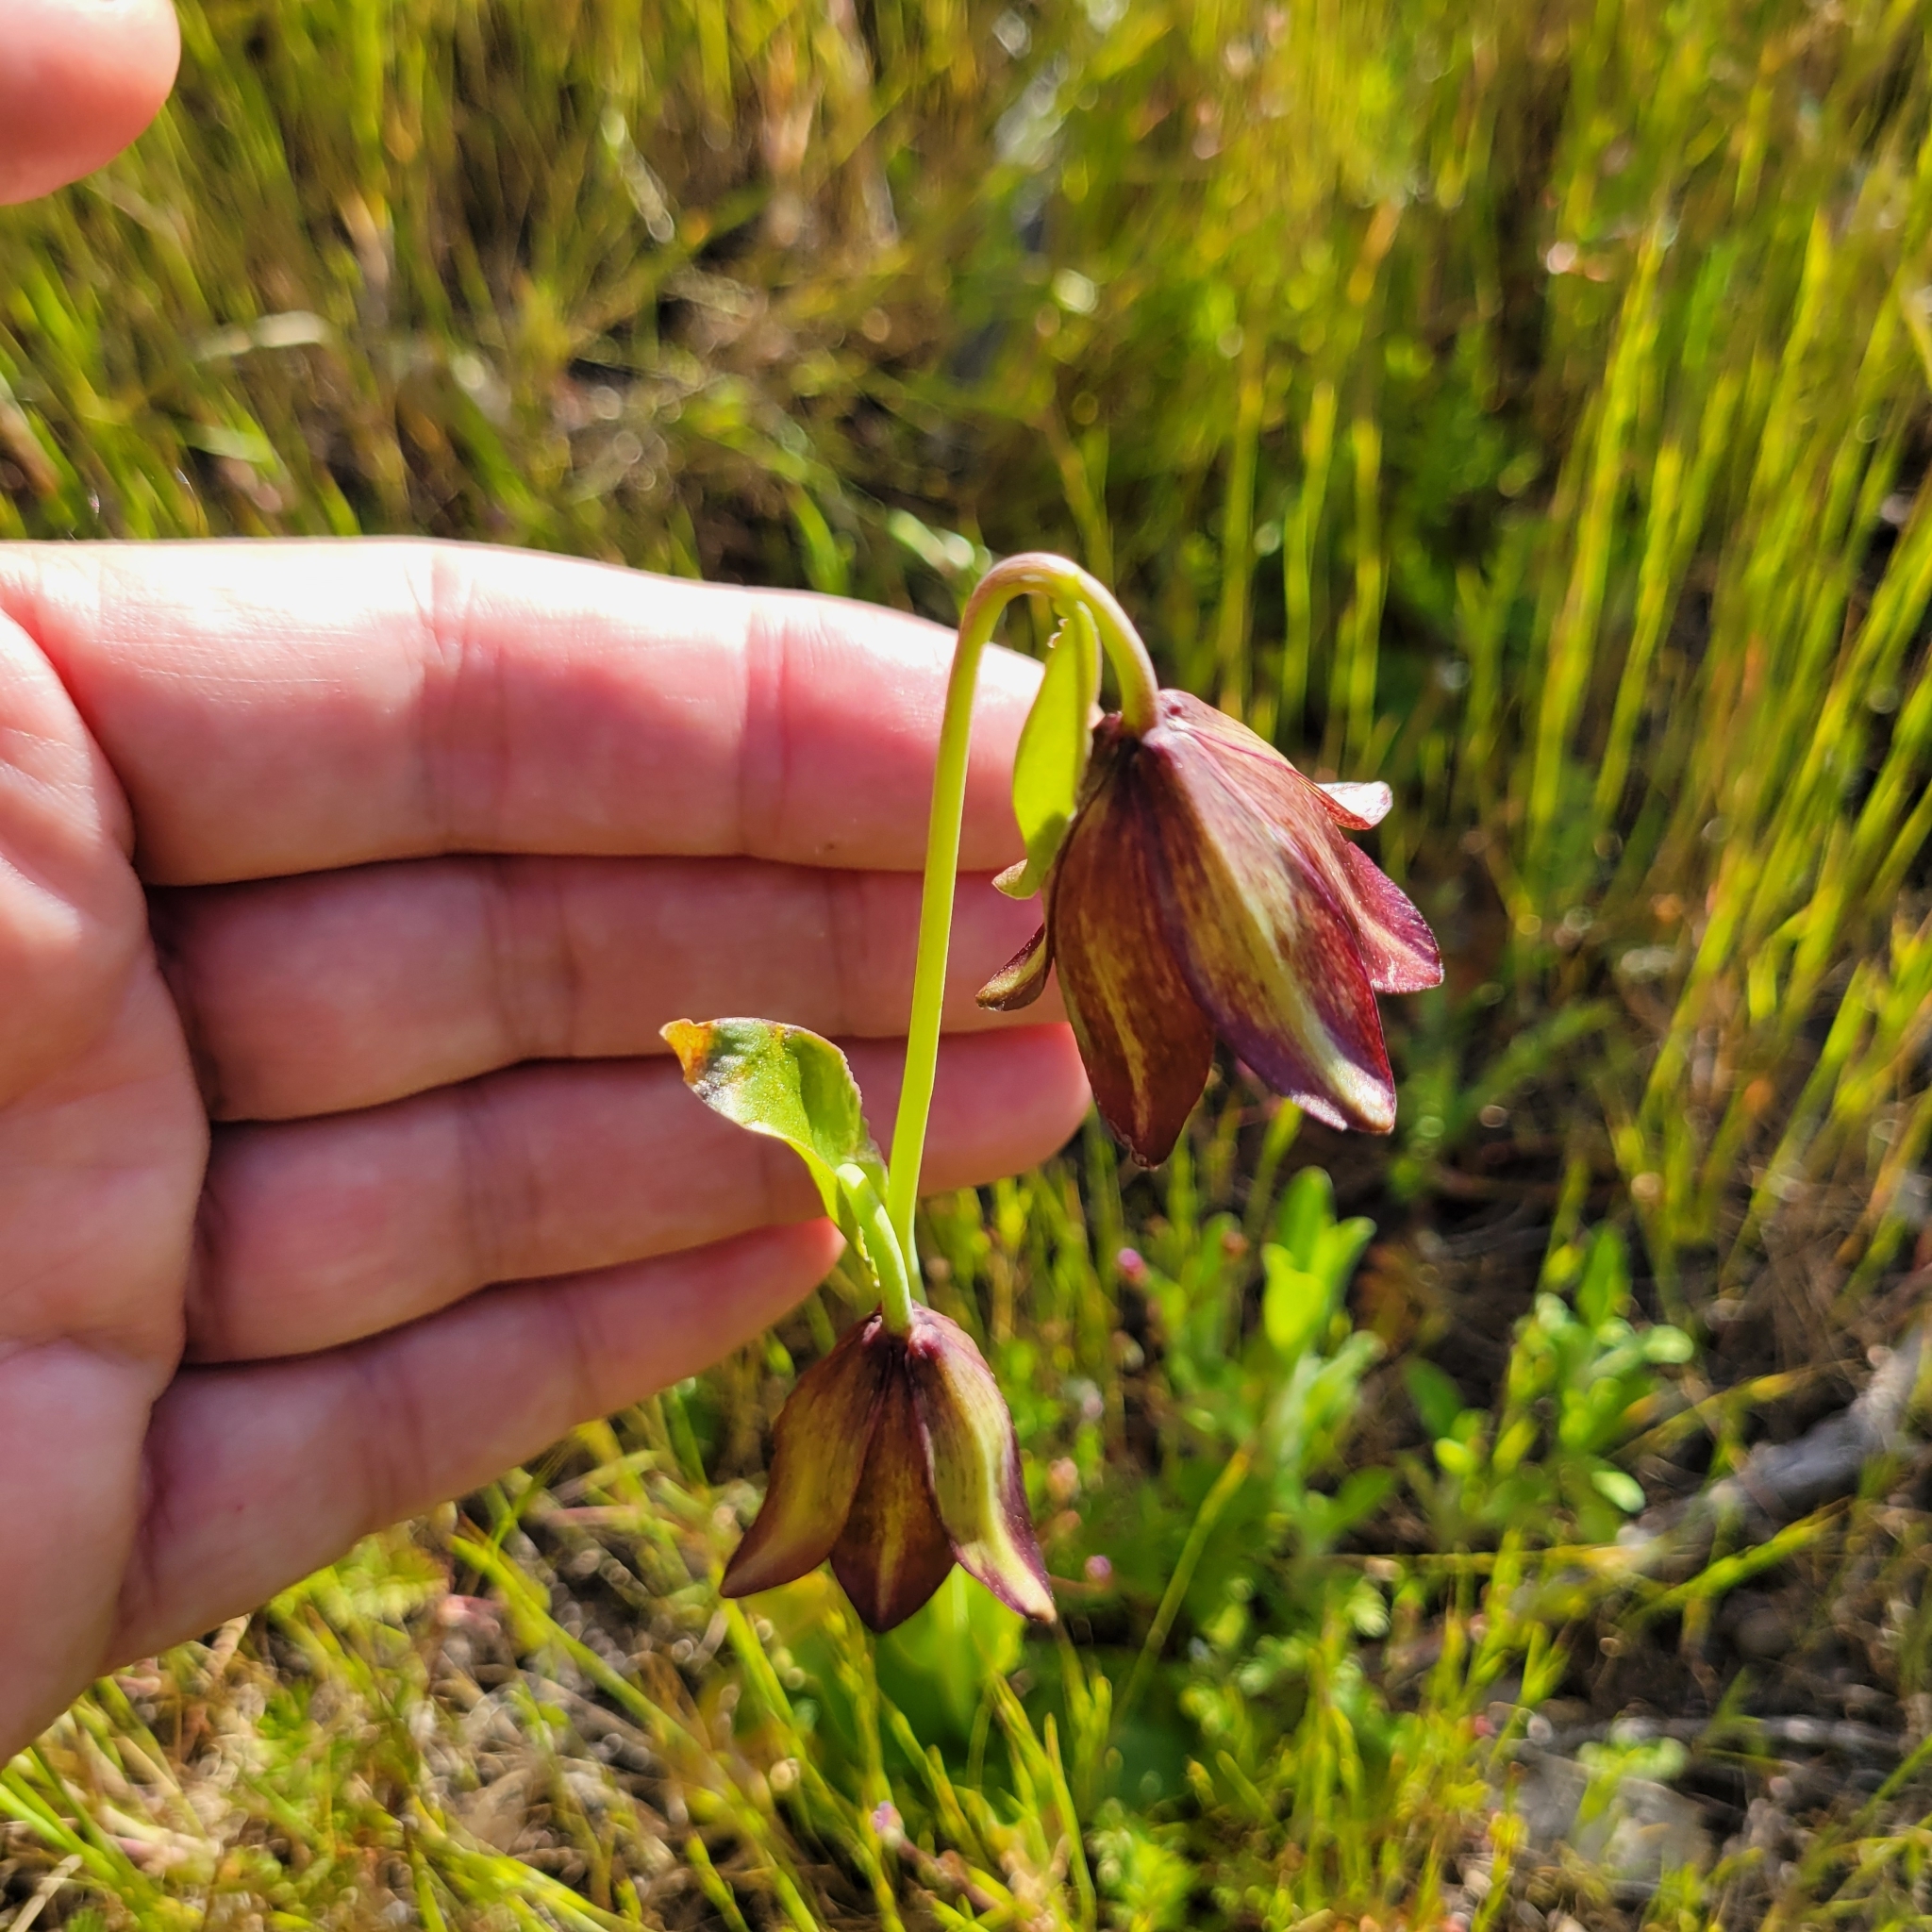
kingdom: Plantae
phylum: Tracheophyta
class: Liliopsida
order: Liliales
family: Liliaceae
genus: Fritillaria
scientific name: Fritillaria biflora
